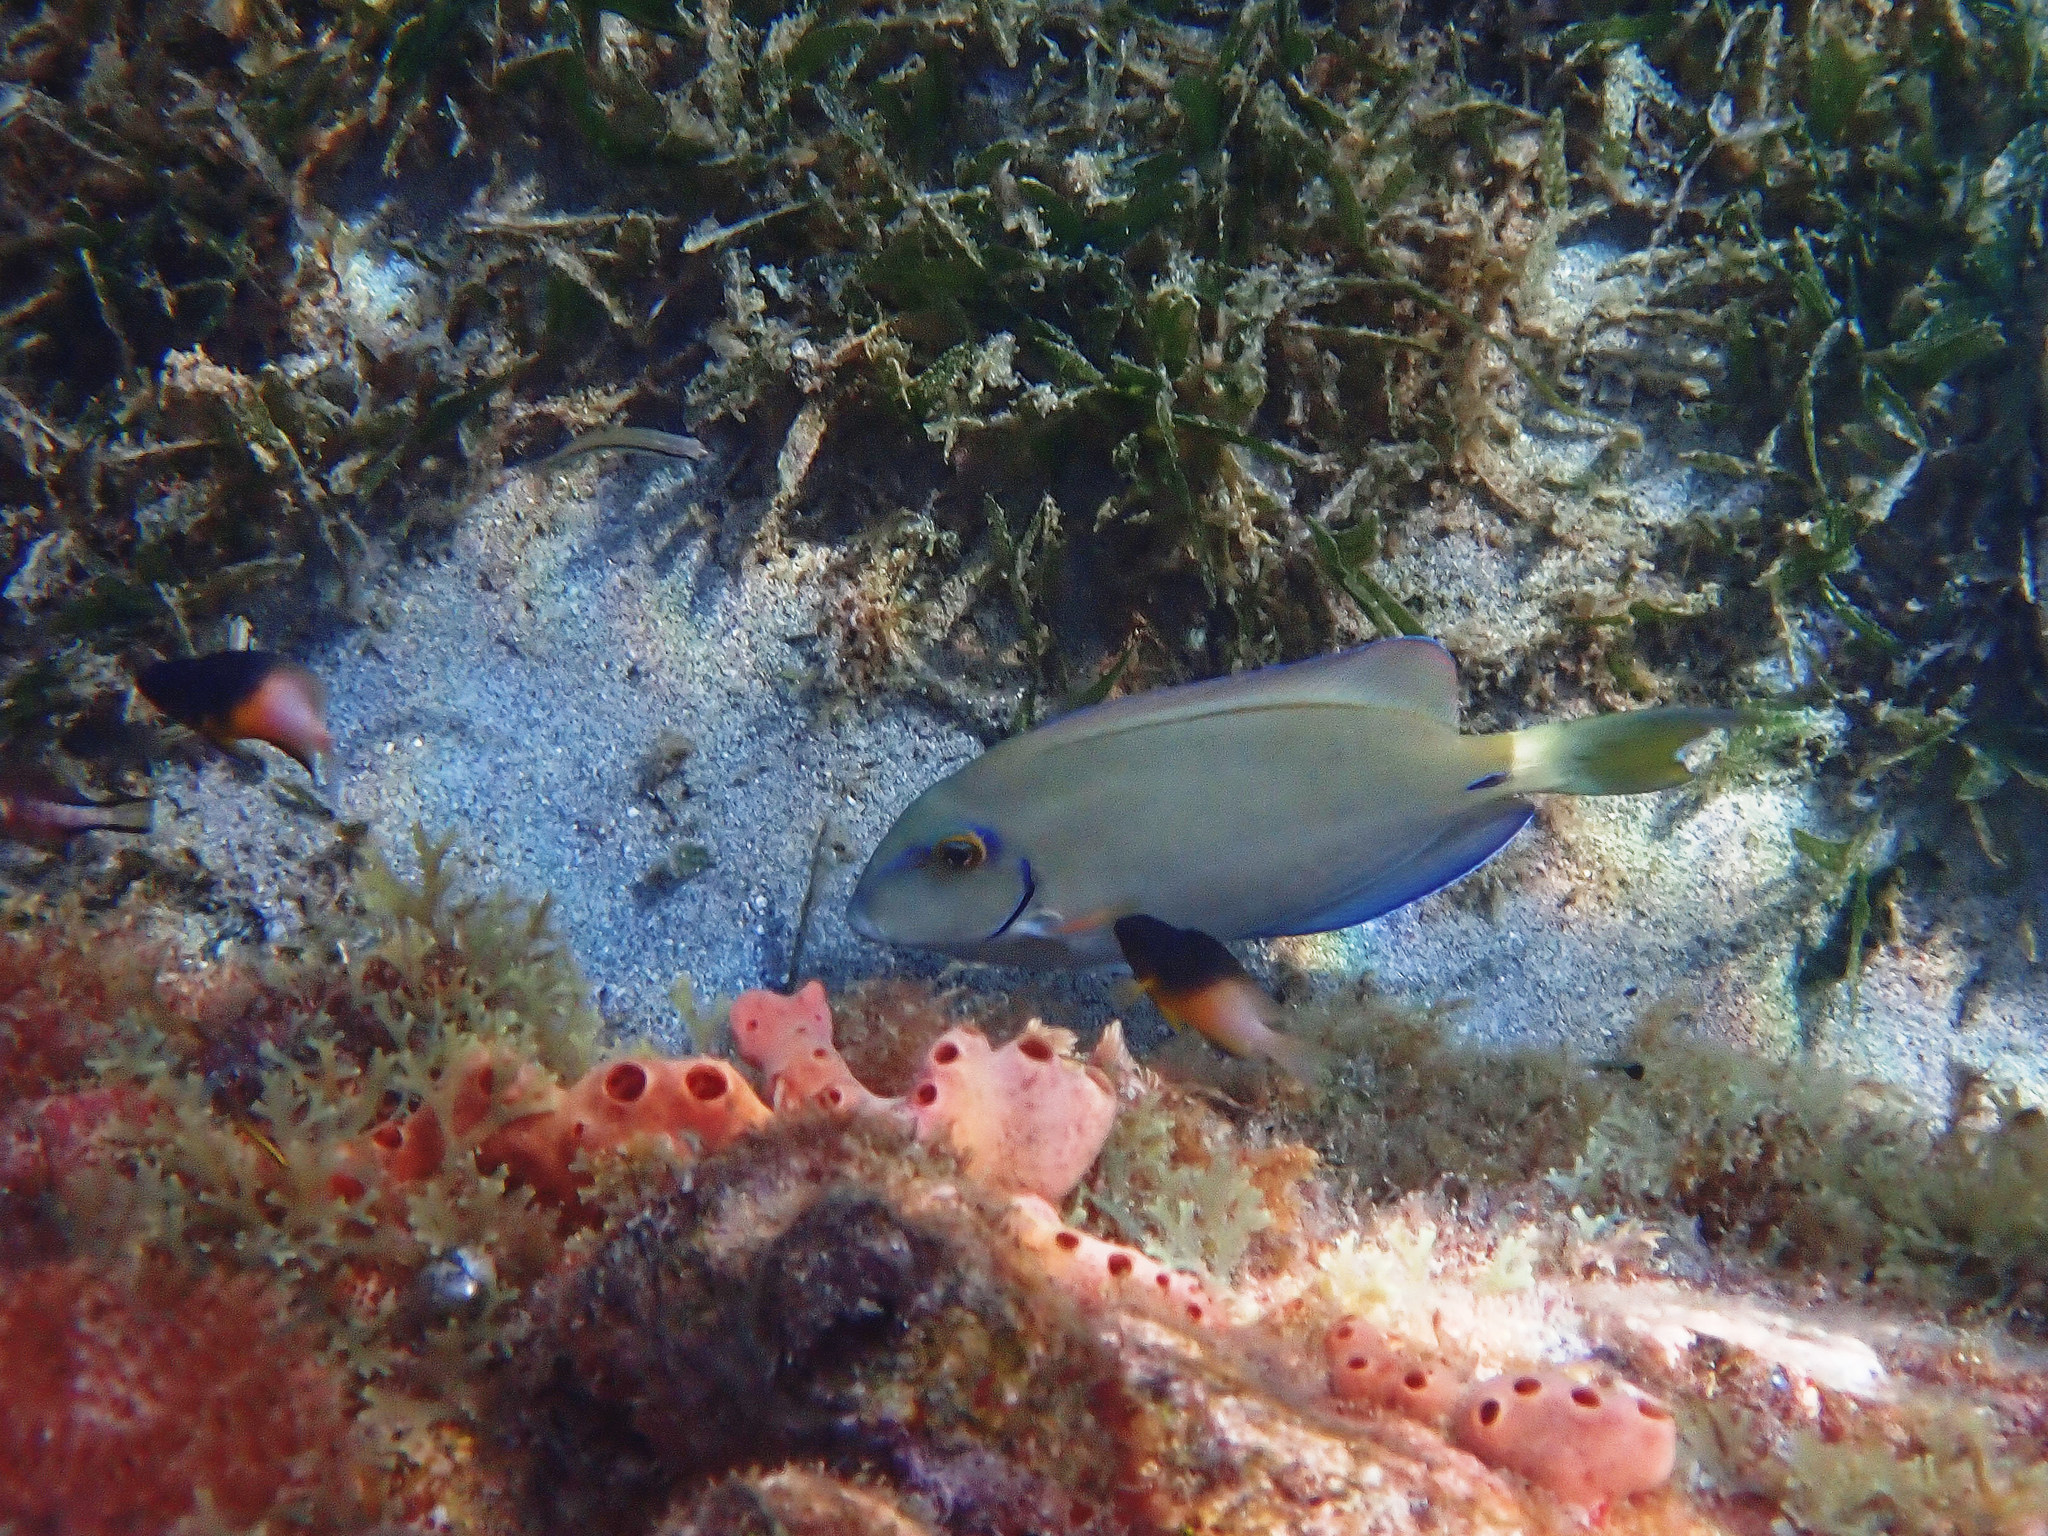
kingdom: Animalia
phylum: Chordata
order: Perciformes
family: Acanthuridae
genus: Acanthurus
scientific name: Acanthurus bahianus
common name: Ocean surgeon
